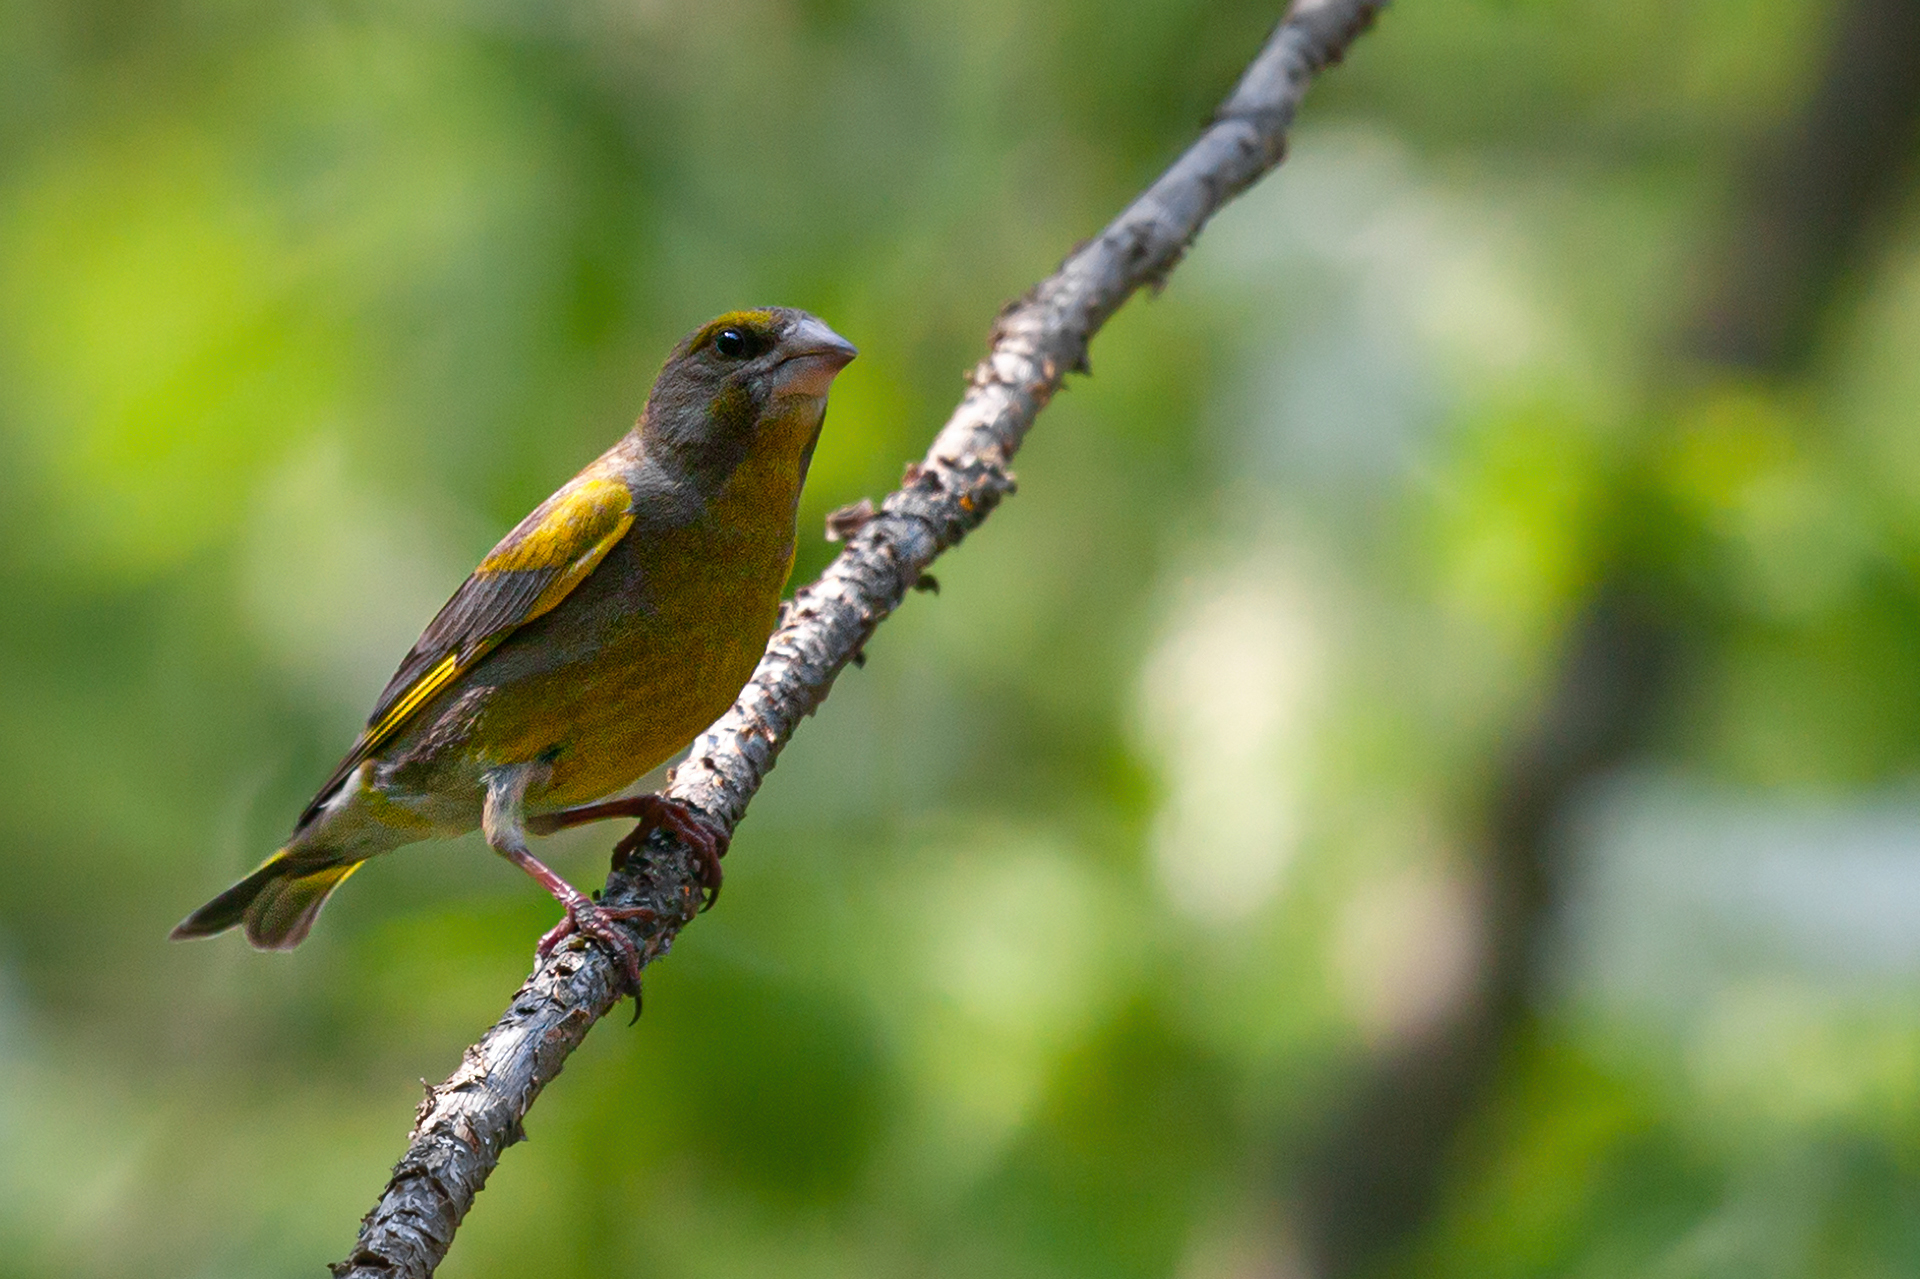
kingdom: Plantae
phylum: Tracheophyta
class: Liliopsida
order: Poales
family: Poaceae
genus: Chloris
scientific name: Chloris chloris
